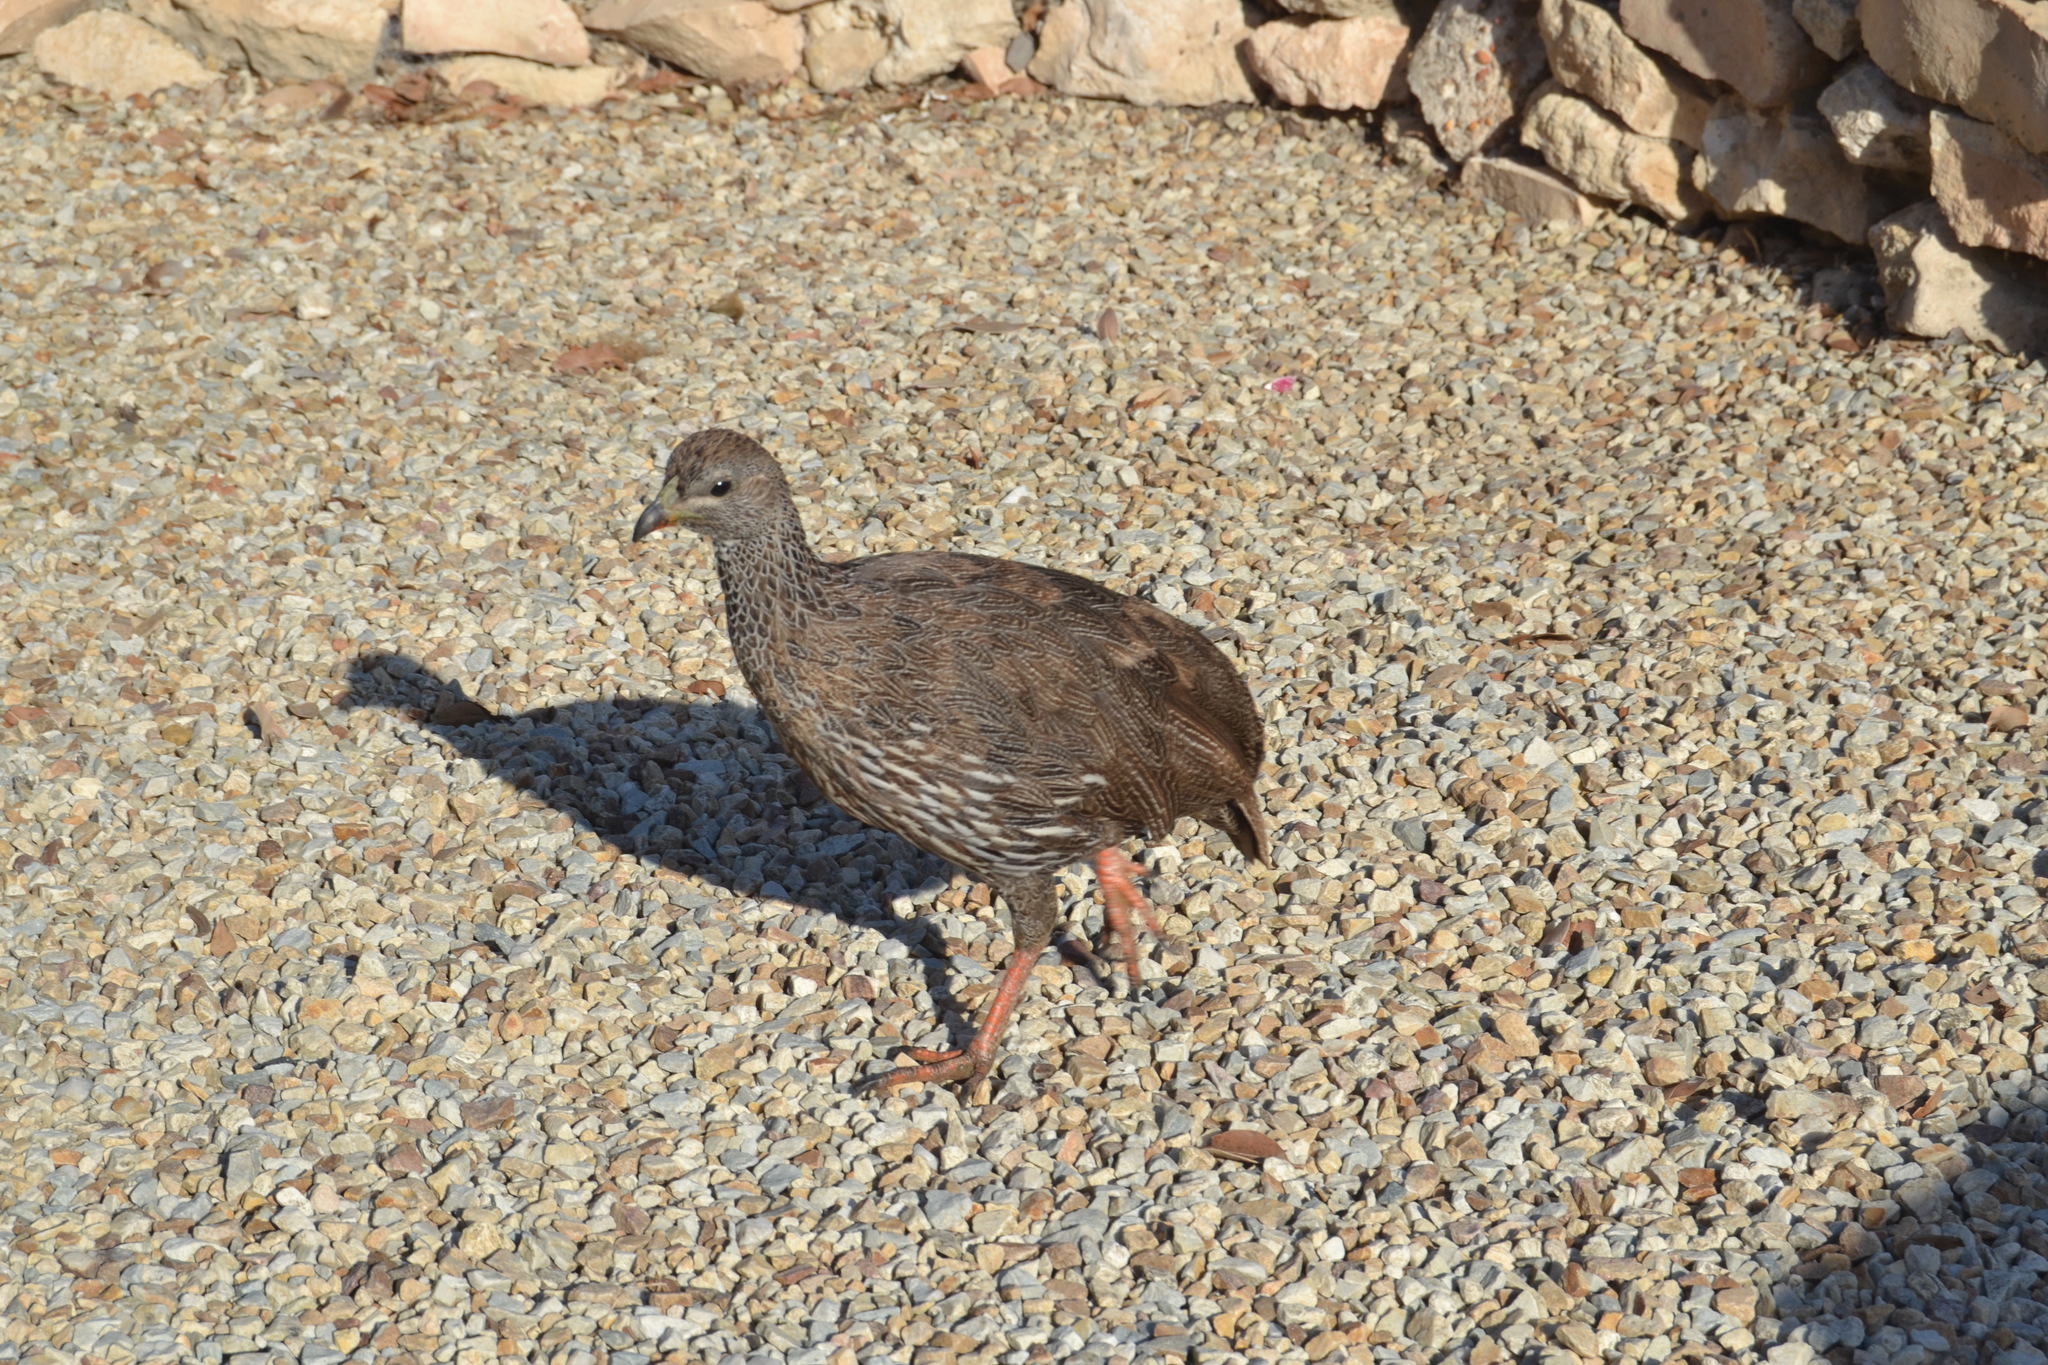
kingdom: Animalia
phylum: Chordata
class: Aves
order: Galliformes
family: Phasianidae
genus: Pternistis
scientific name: Pternistis capensis
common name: Cape spurfowl
